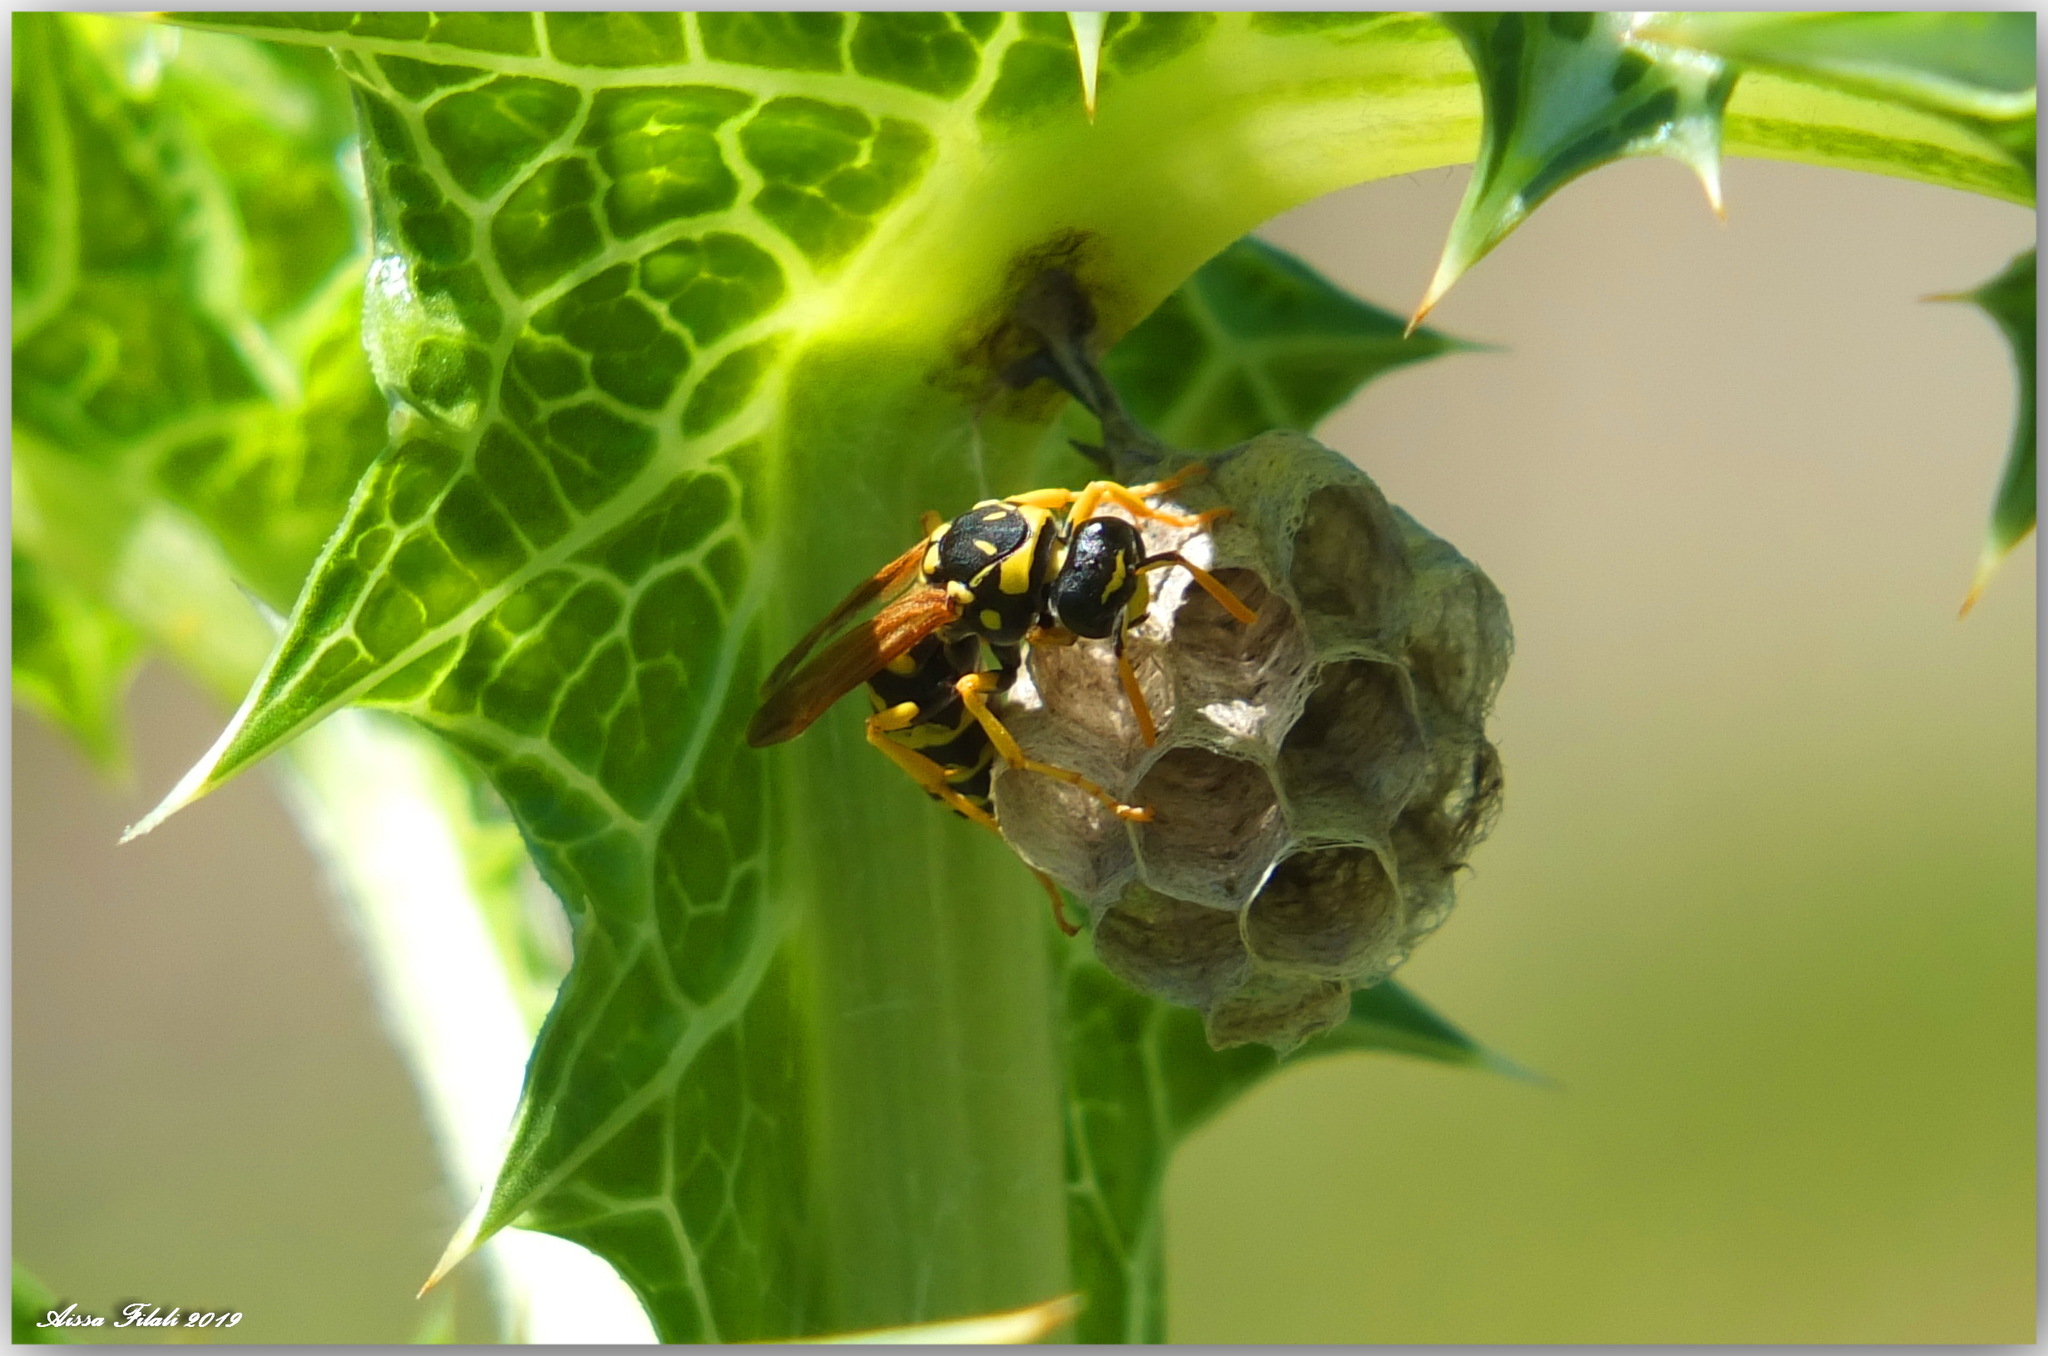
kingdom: Animalia
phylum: Arthropoda
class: Insecta
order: Hymenoptera
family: Eumenidae
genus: Polistes
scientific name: Polistes gallicus
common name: Paper wasp
